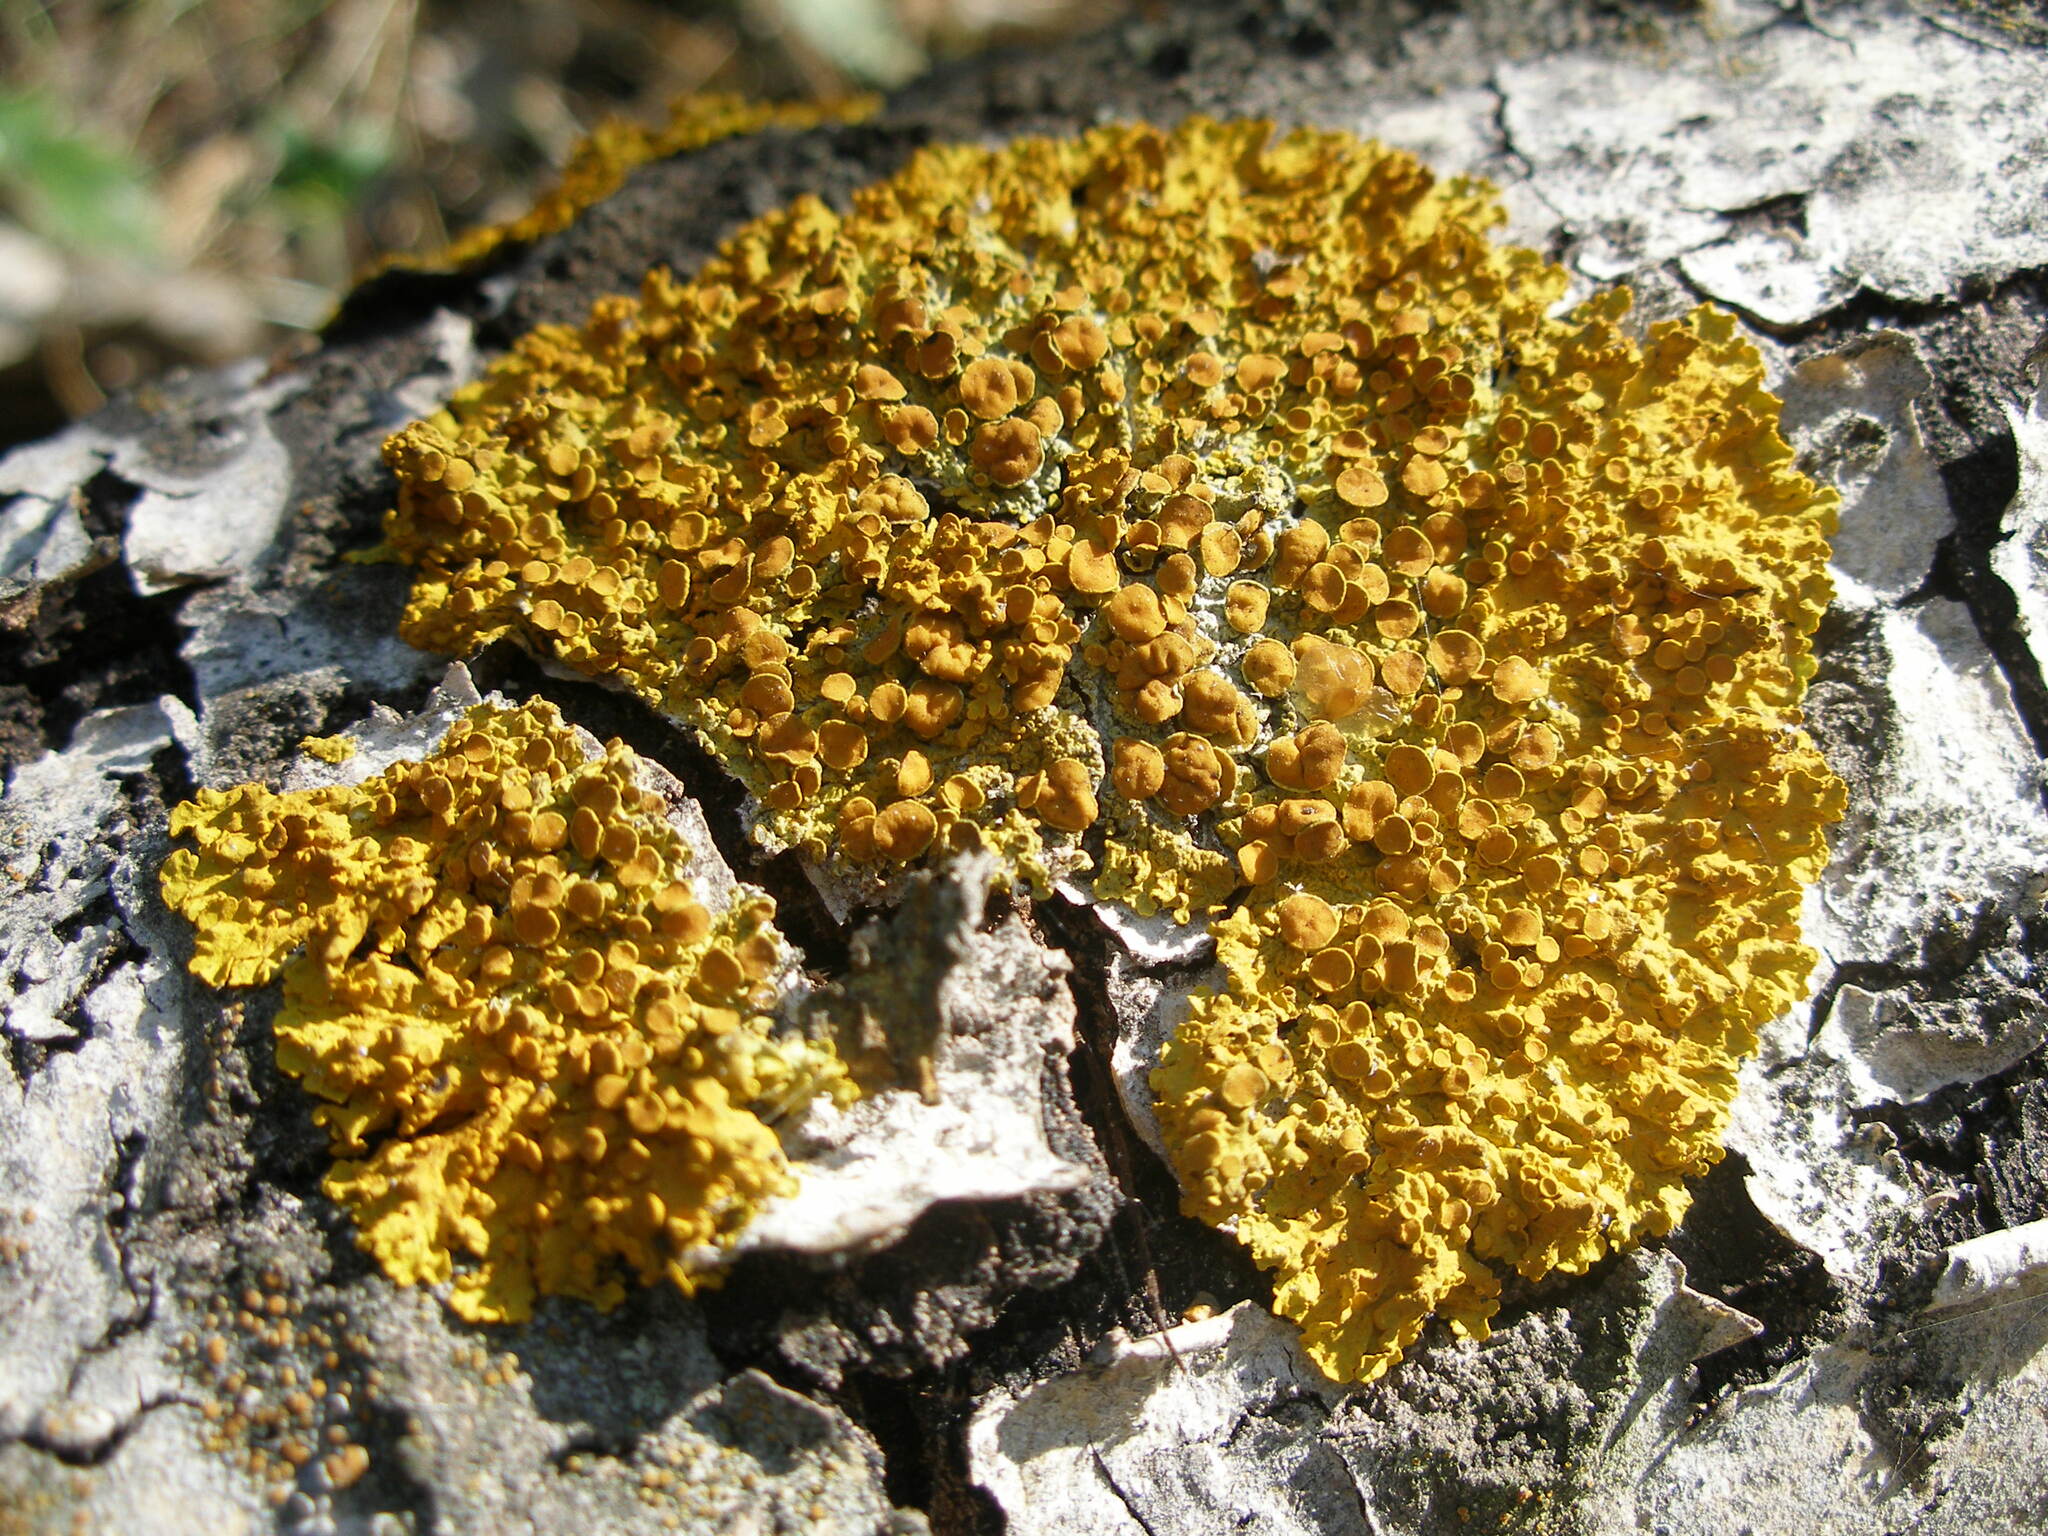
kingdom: Fungi
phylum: Ascomycota
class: Lecanoromycetes
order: Teloschistales
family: Teloschistaceae
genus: Xanthoria
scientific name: Xanthoria parietina
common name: Common orange lichen
